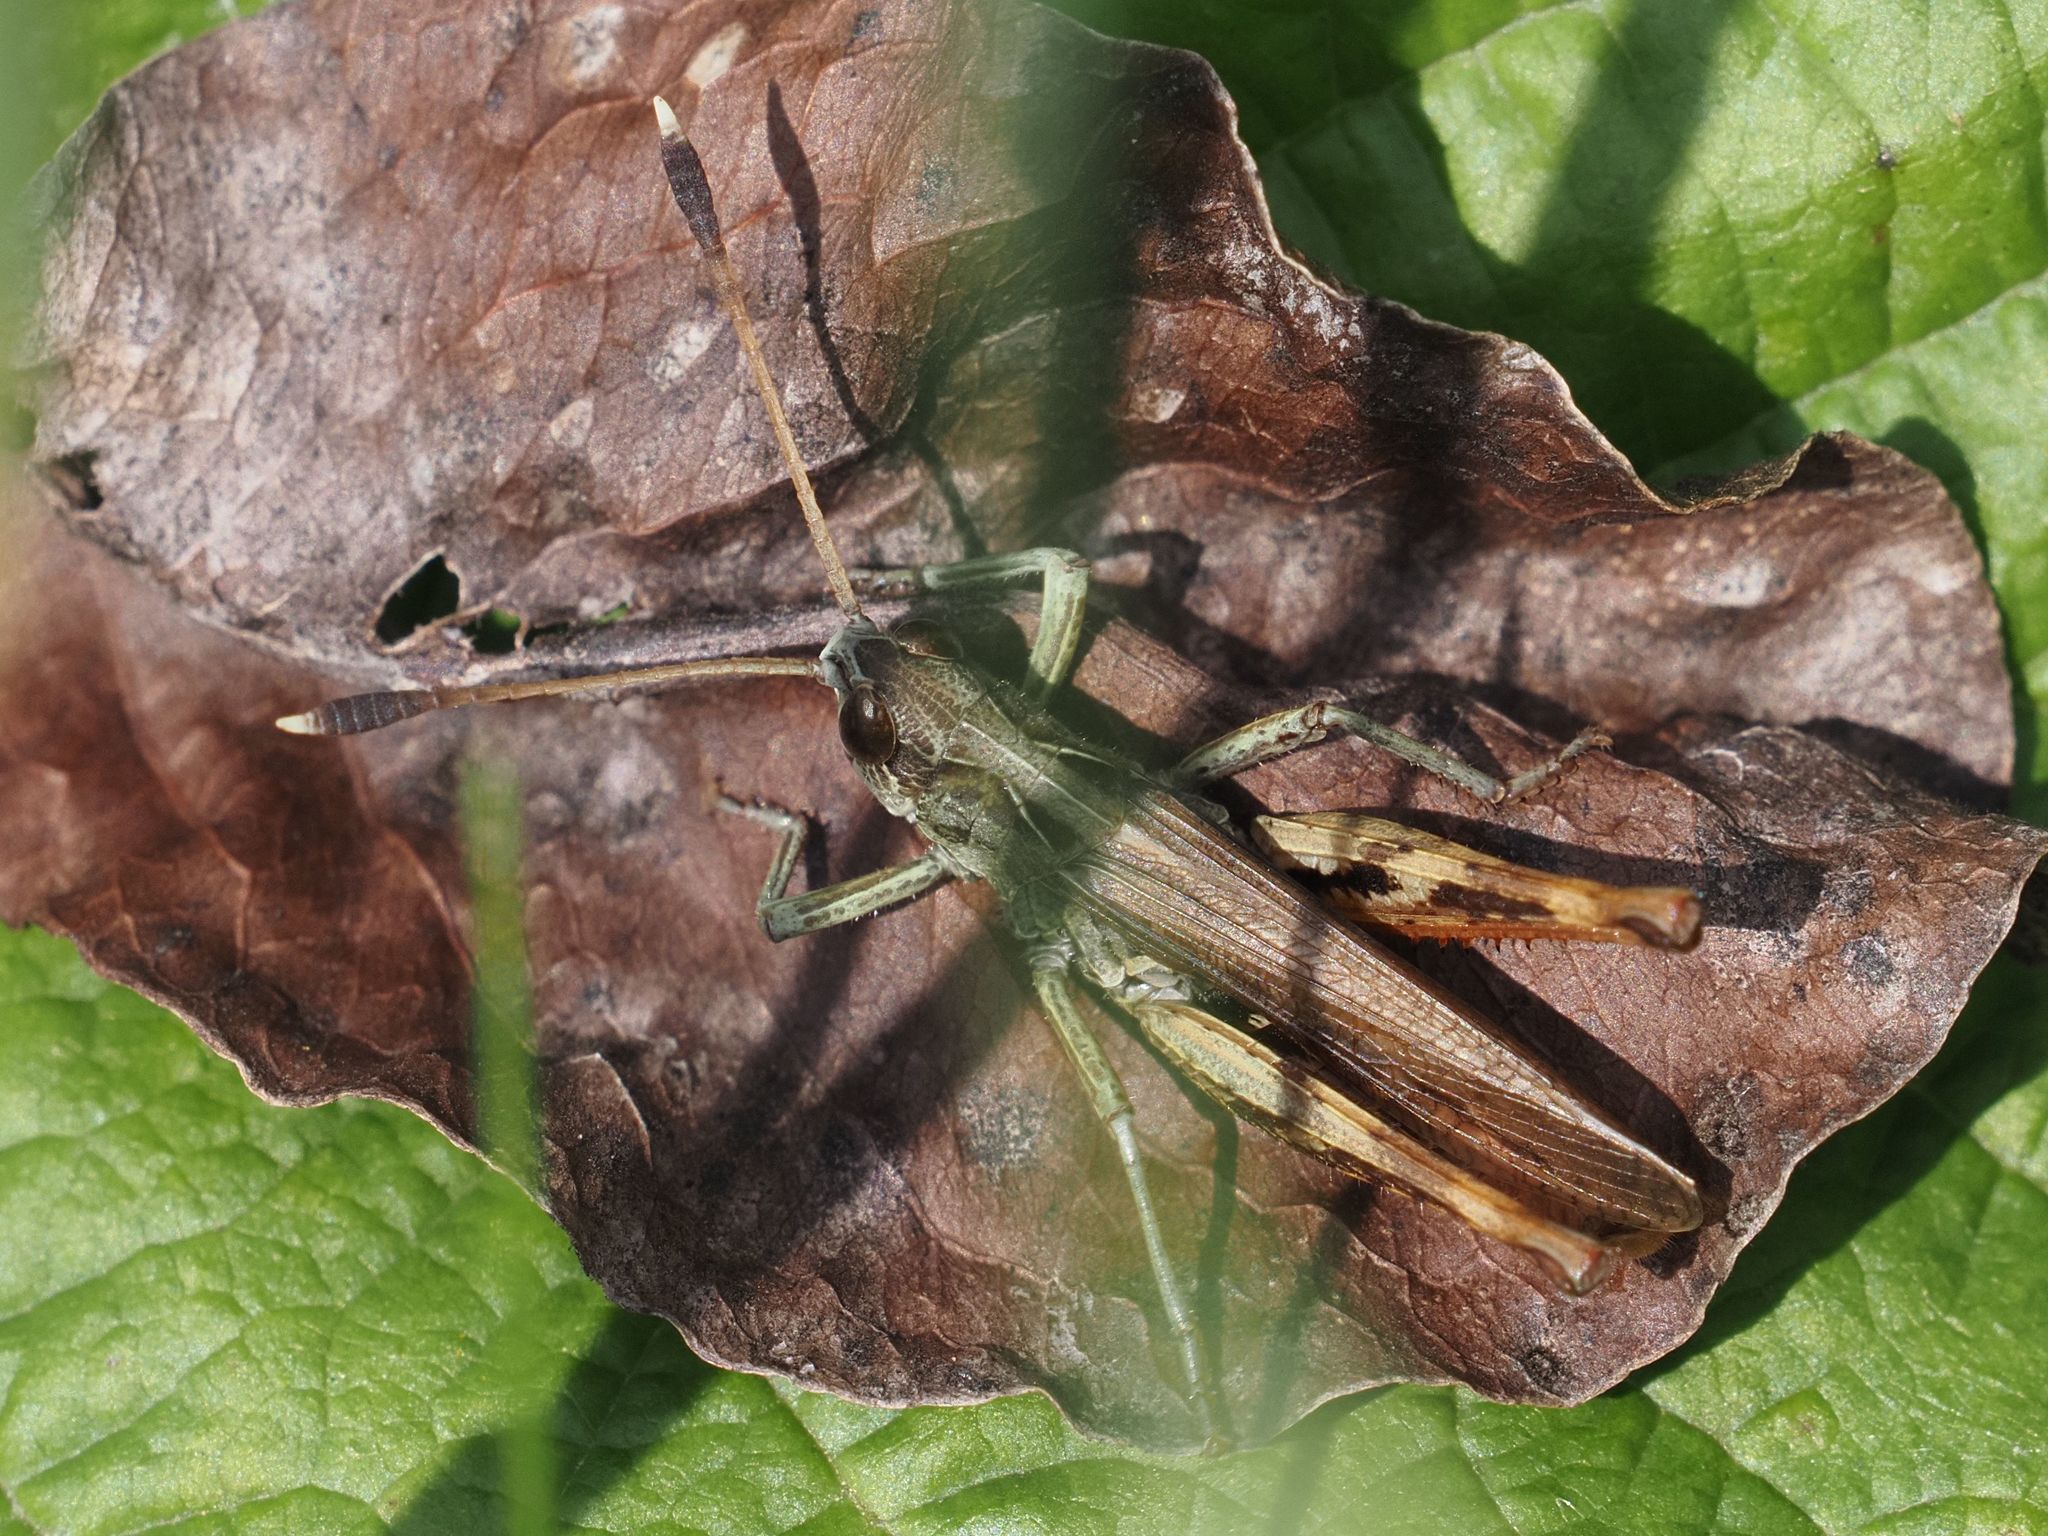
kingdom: Animalia
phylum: Arthropoda
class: Insecta
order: Orthoptera
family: Acrididae
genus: Gomphocerippus
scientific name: Gomphocerippus rufus
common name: Rufous grasshopper
